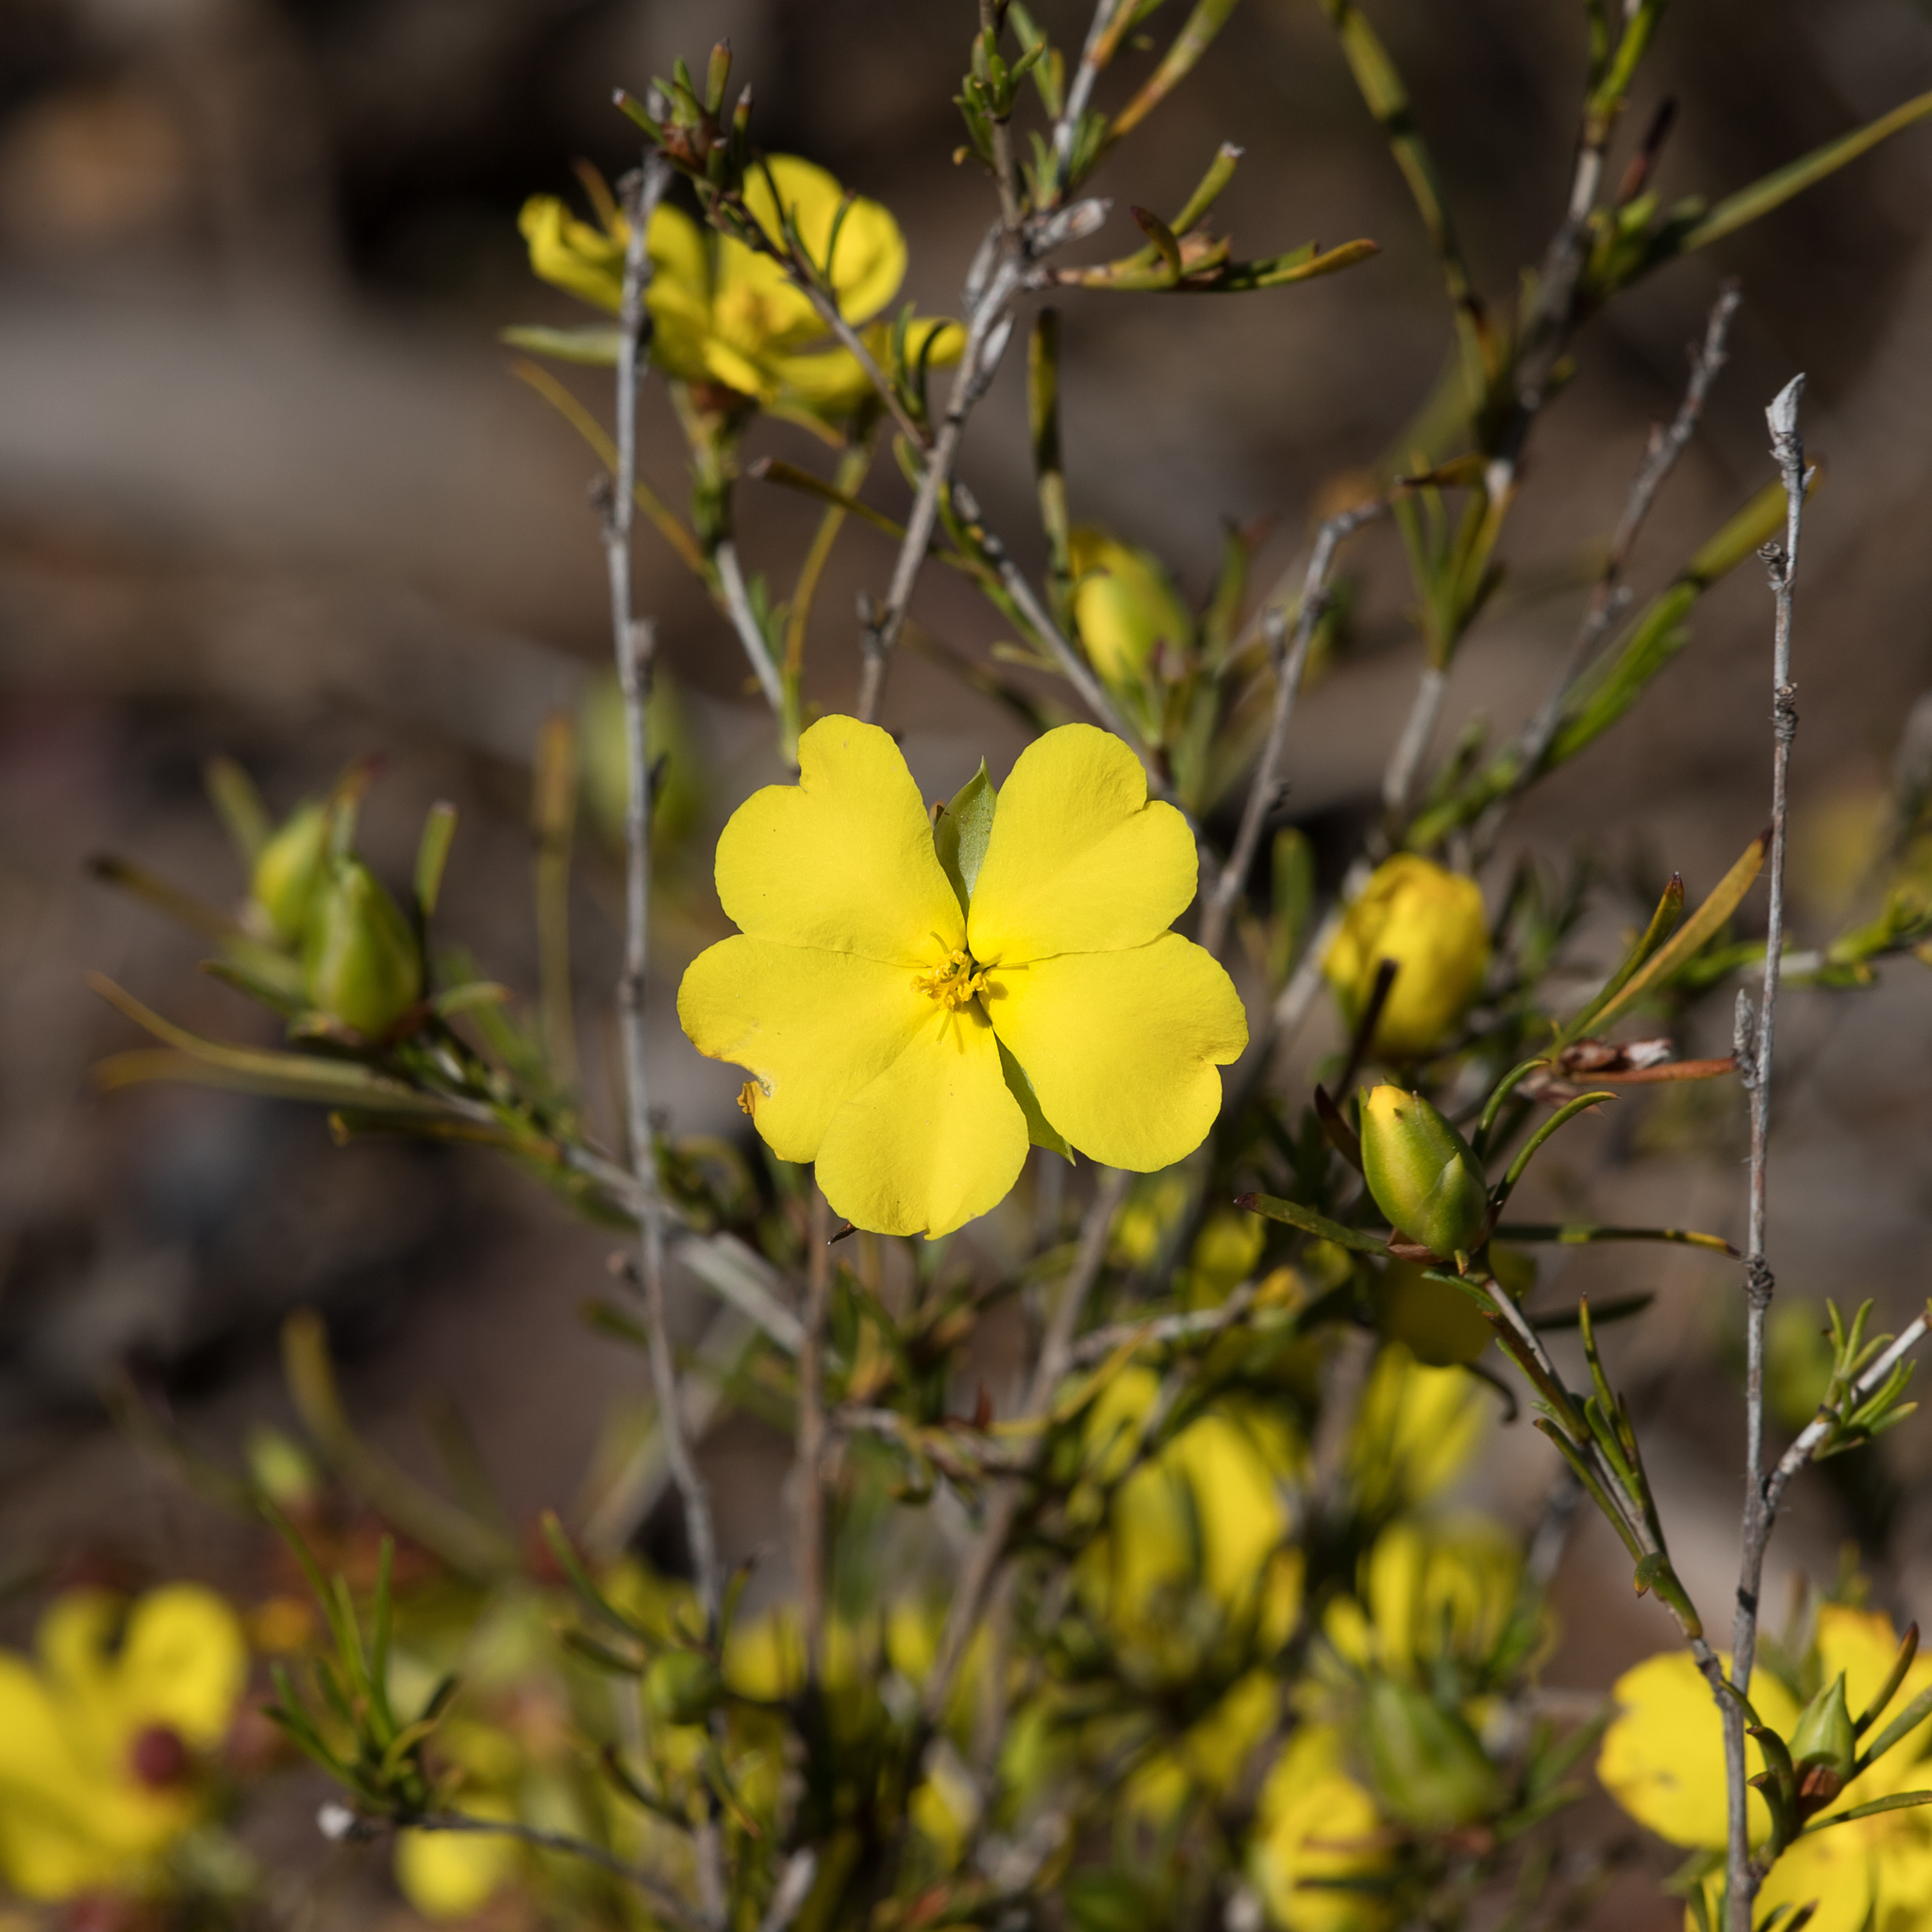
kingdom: Plantae
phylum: Tracheophyta
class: Magnoliopsida
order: Dilleniales
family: Dilleniaceae
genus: Hibbertia
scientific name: Hibbertia virgata
